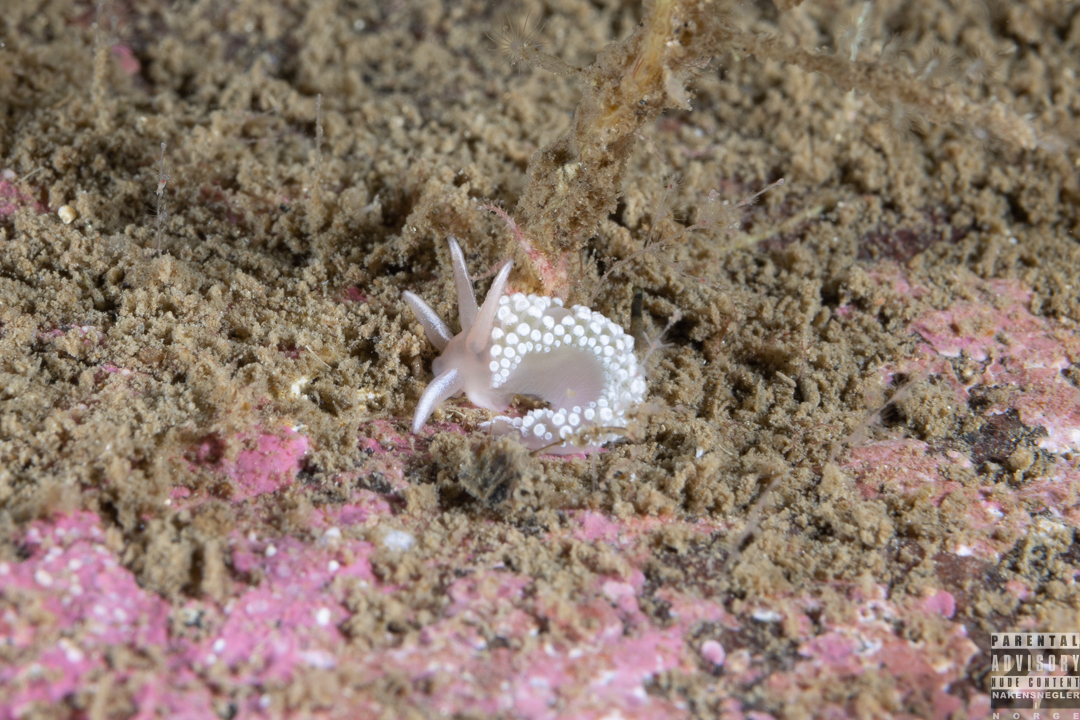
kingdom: Animalia
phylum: Mollusca
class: Gastropoda
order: Nudibranchia
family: Coryphellidae
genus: Coryphella
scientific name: Coryphella verrucosa
